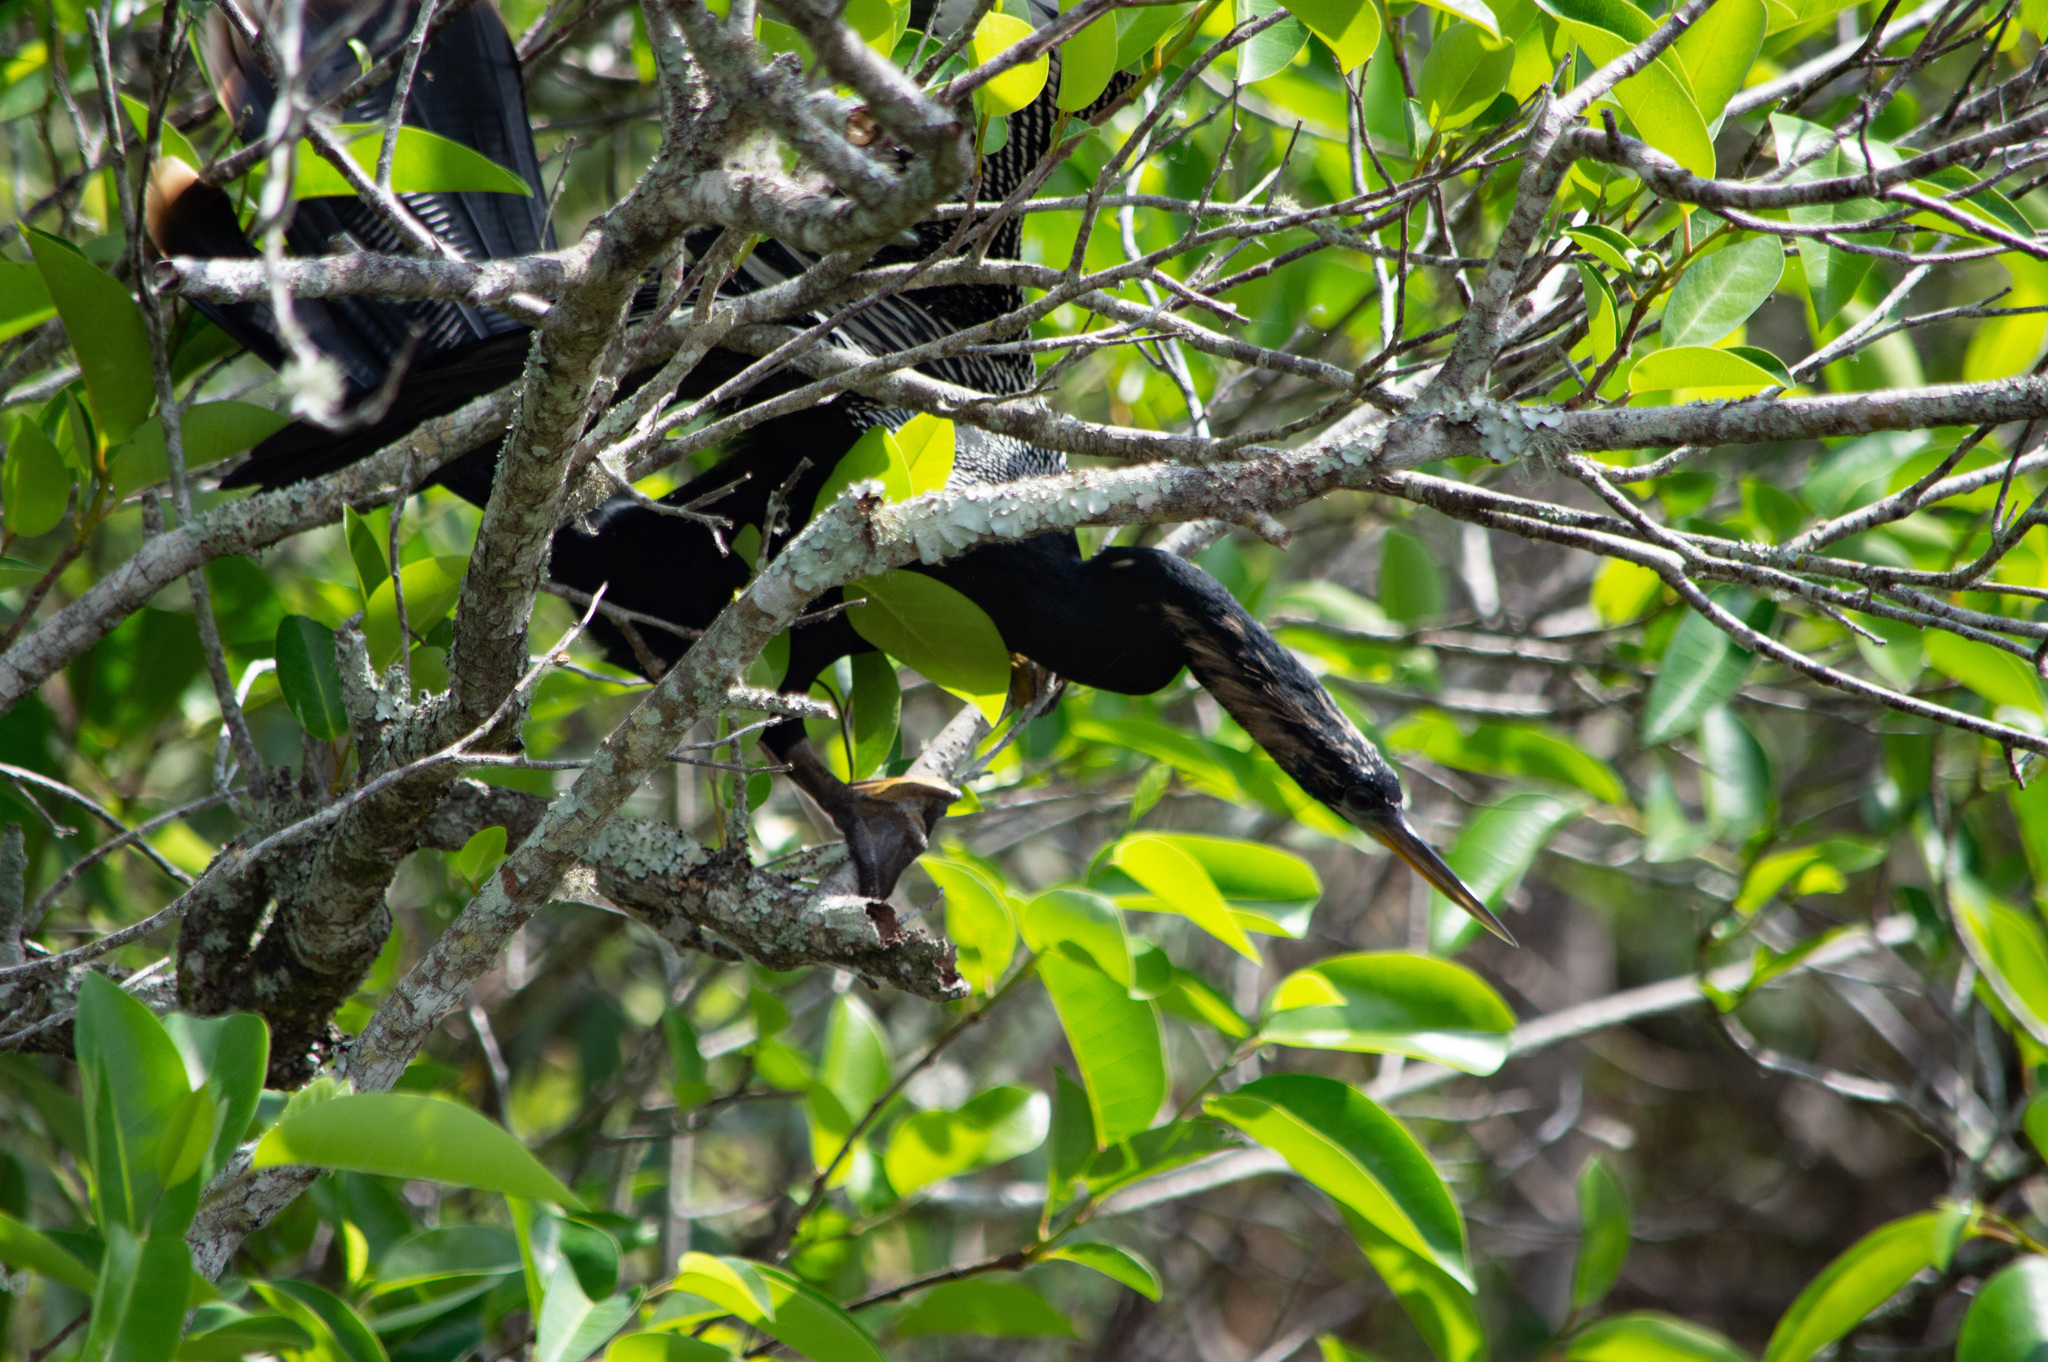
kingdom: Animalia
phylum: Chordata
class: Aves
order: Suliformes
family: Anhingidae
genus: Anhinga
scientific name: Anhinga anhinga
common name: Anhinga
